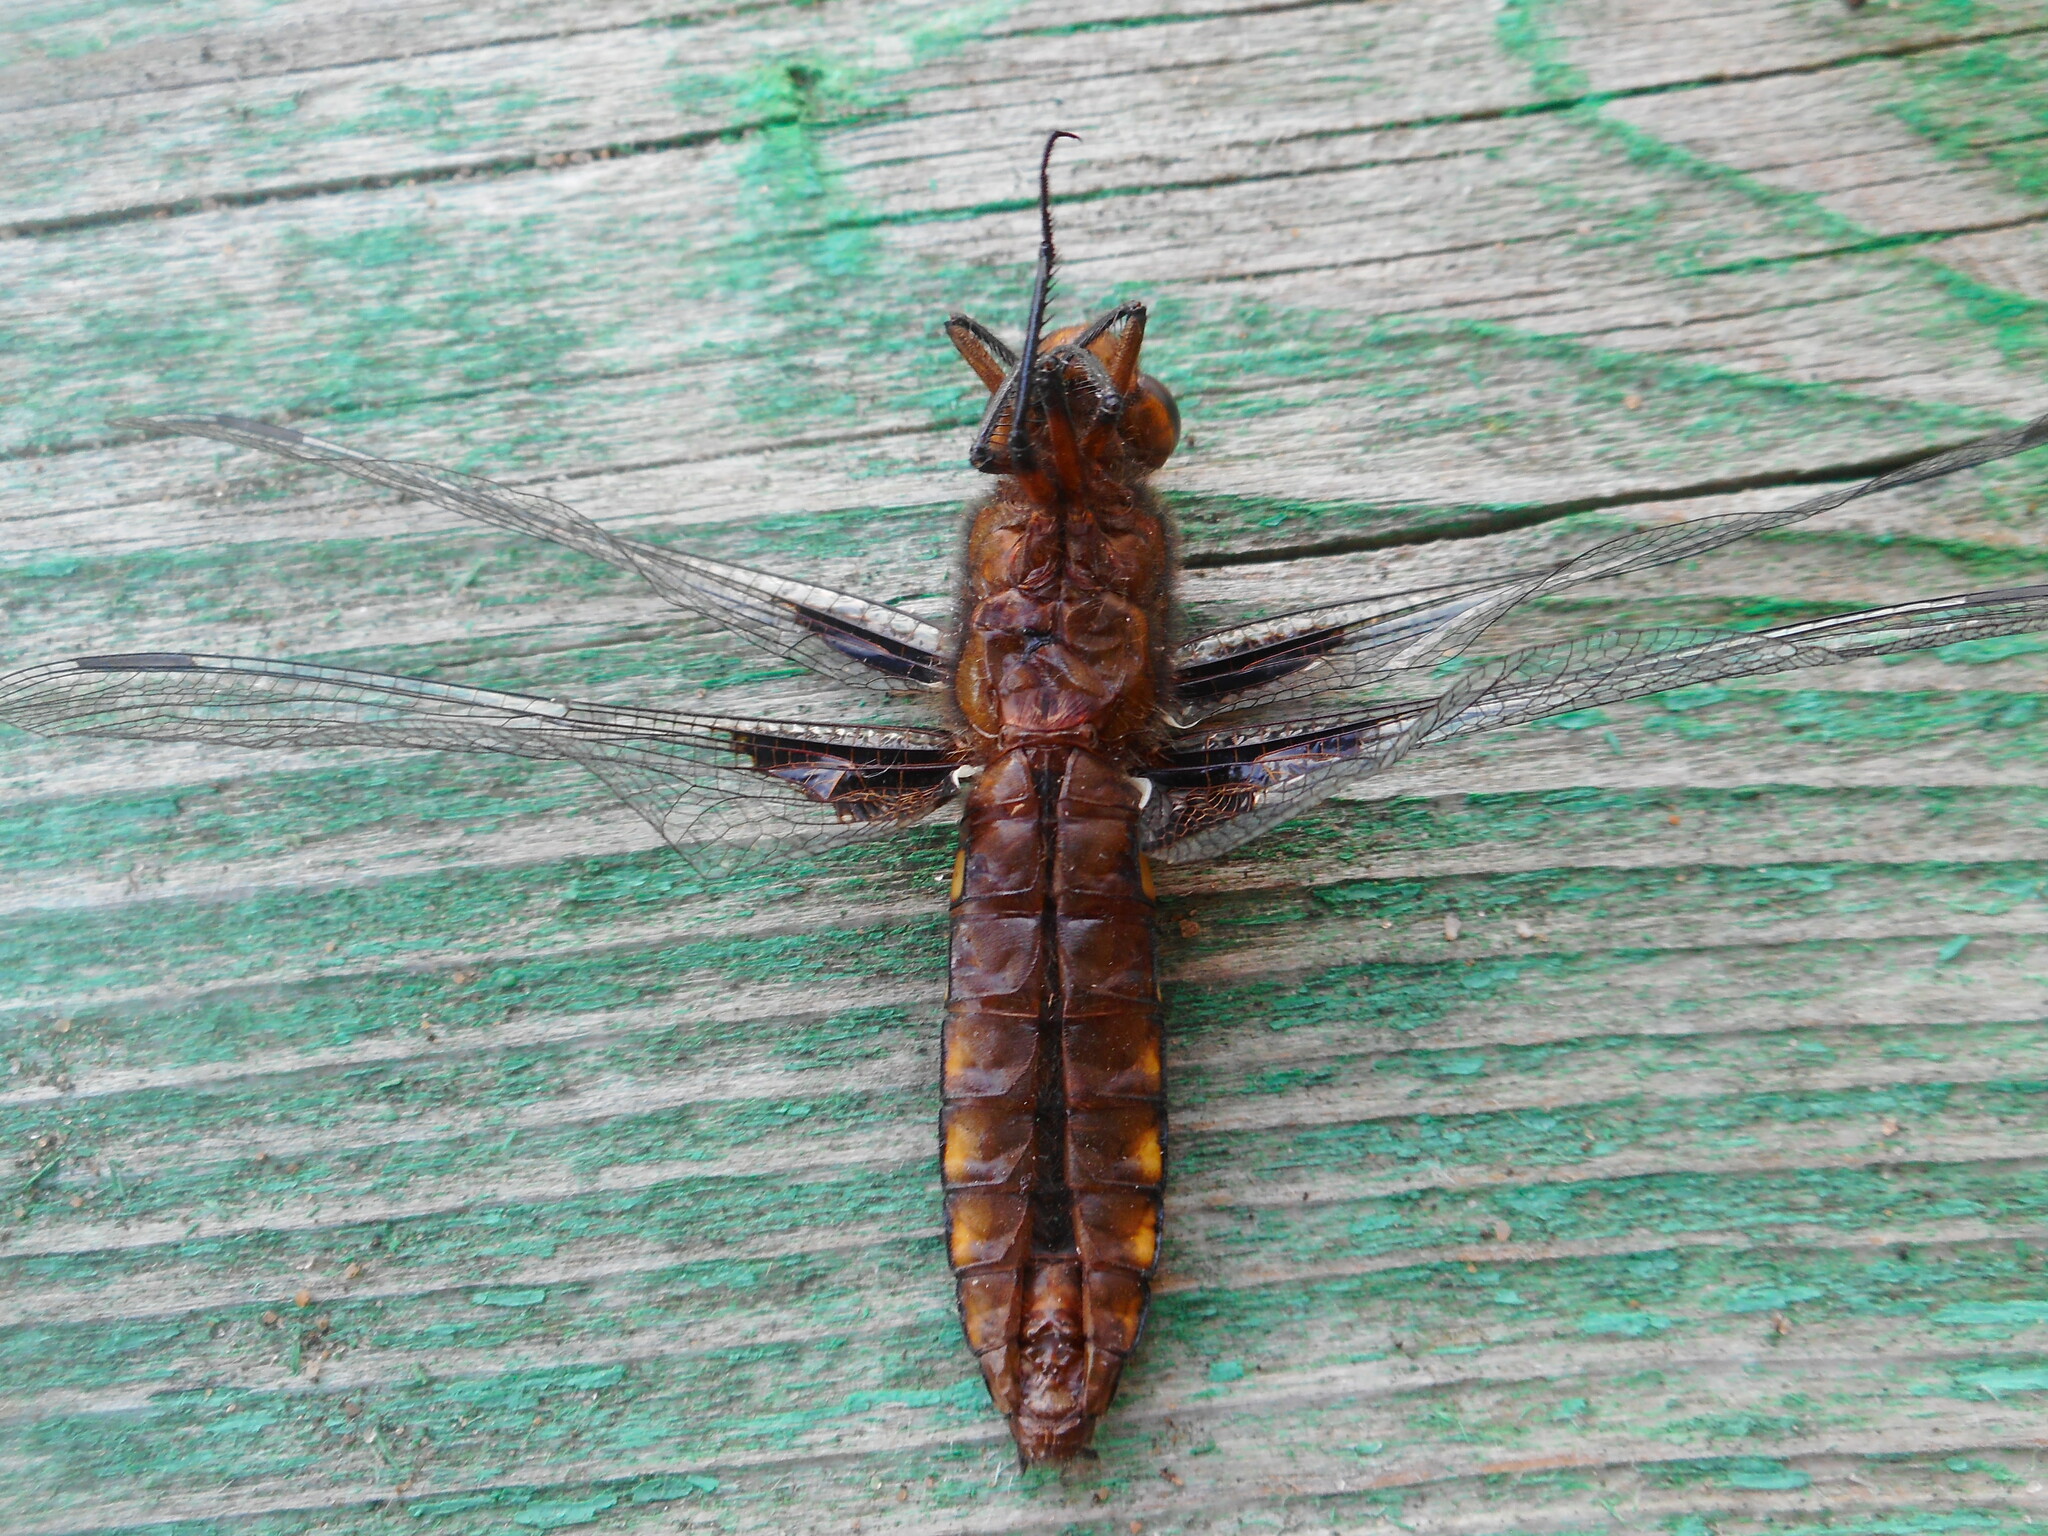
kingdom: Animalia
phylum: Arthropoda
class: Insecta
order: Odonata
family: Libellulidae
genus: Libellula
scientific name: Libellula depressa
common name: Broad-bodied chaser
